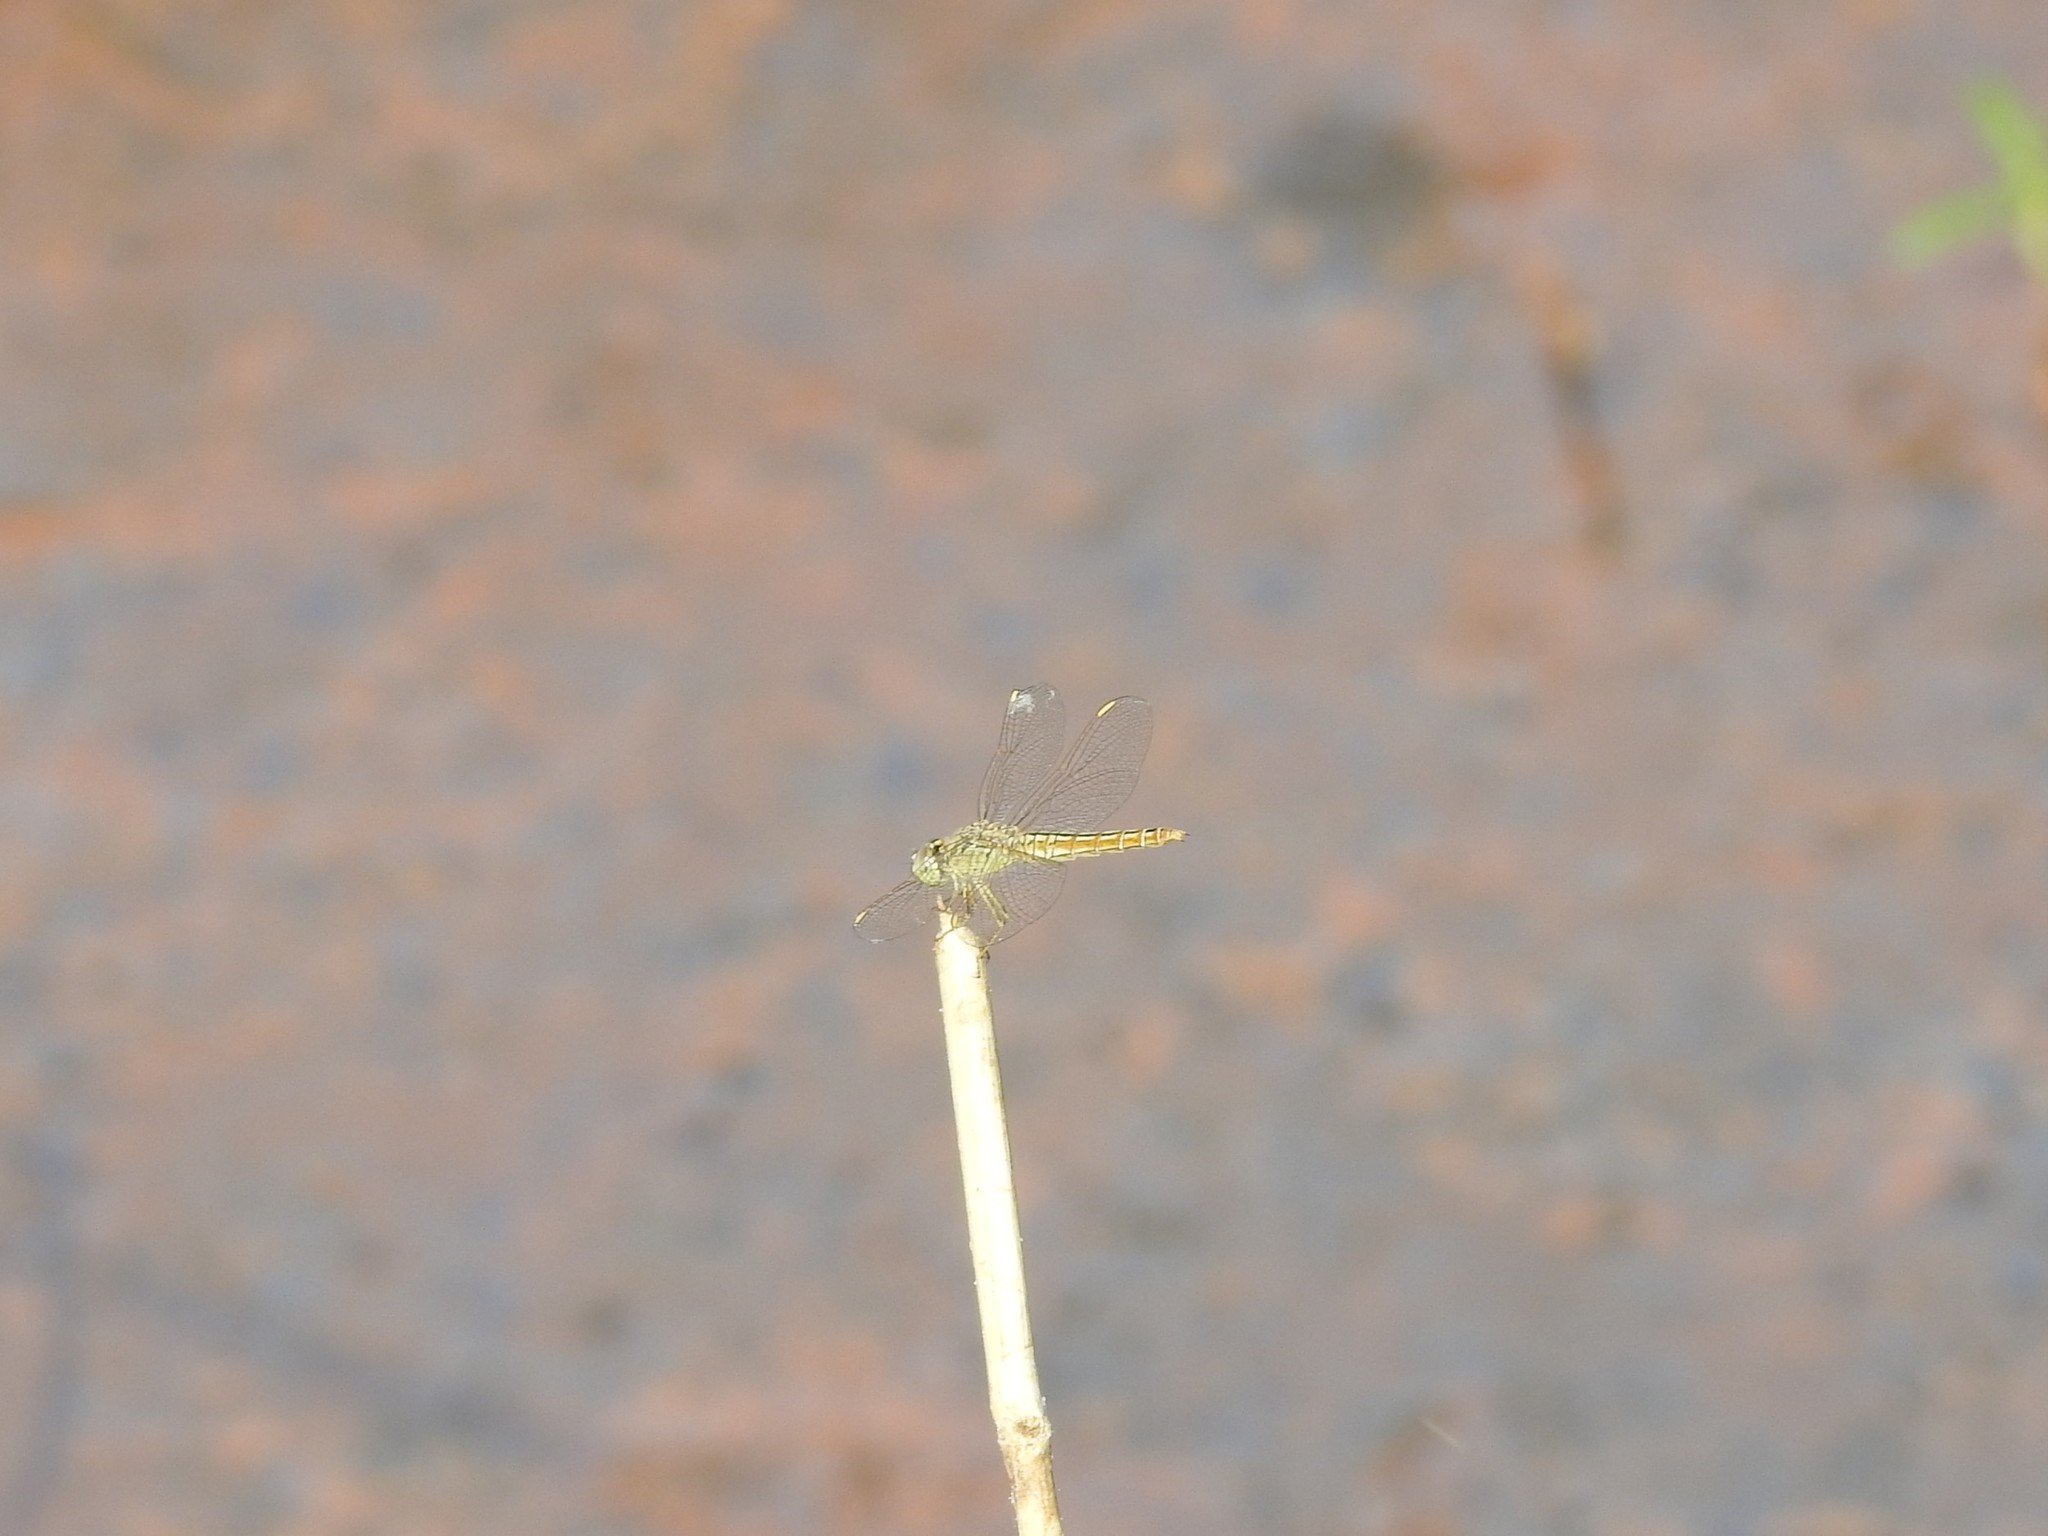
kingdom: Animalia
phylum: Arthropoda
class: Insecta
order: Odonata
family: Libellulidae
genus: Brachythemis
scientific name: Brachythemis contaminata
